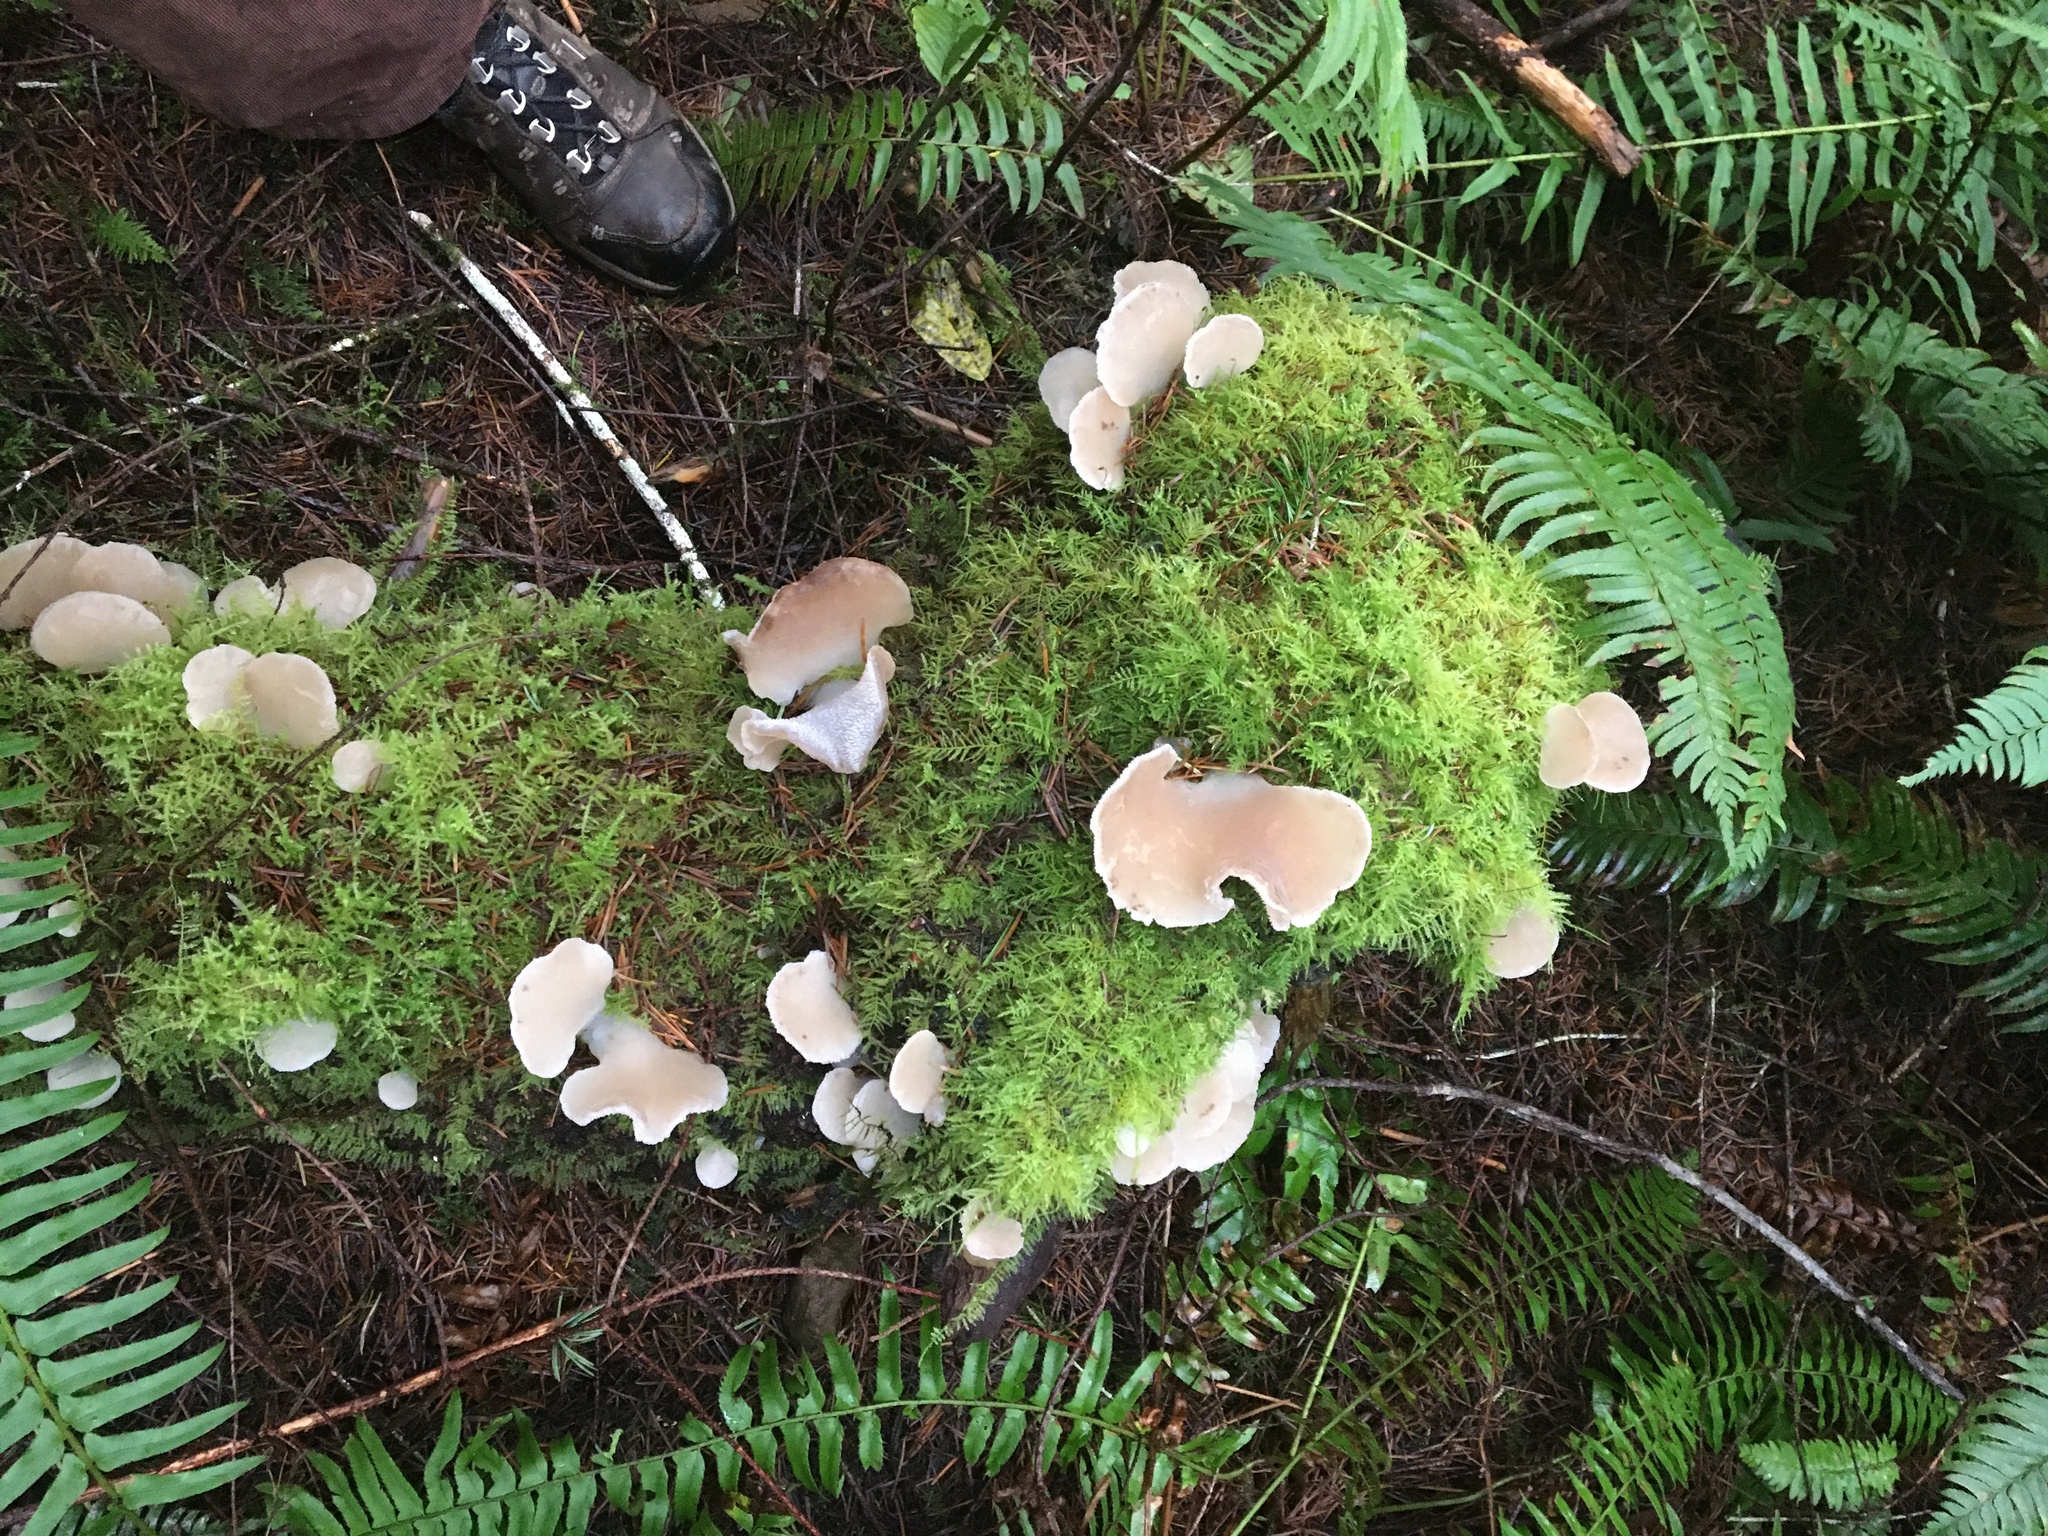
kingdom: Fungi
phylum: Basidiomycota
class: Agaricomycetes
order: Auriculariales
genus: Pseudohydnum
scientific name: Pseudohydnum gelatinosum
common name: Jelly tongue
